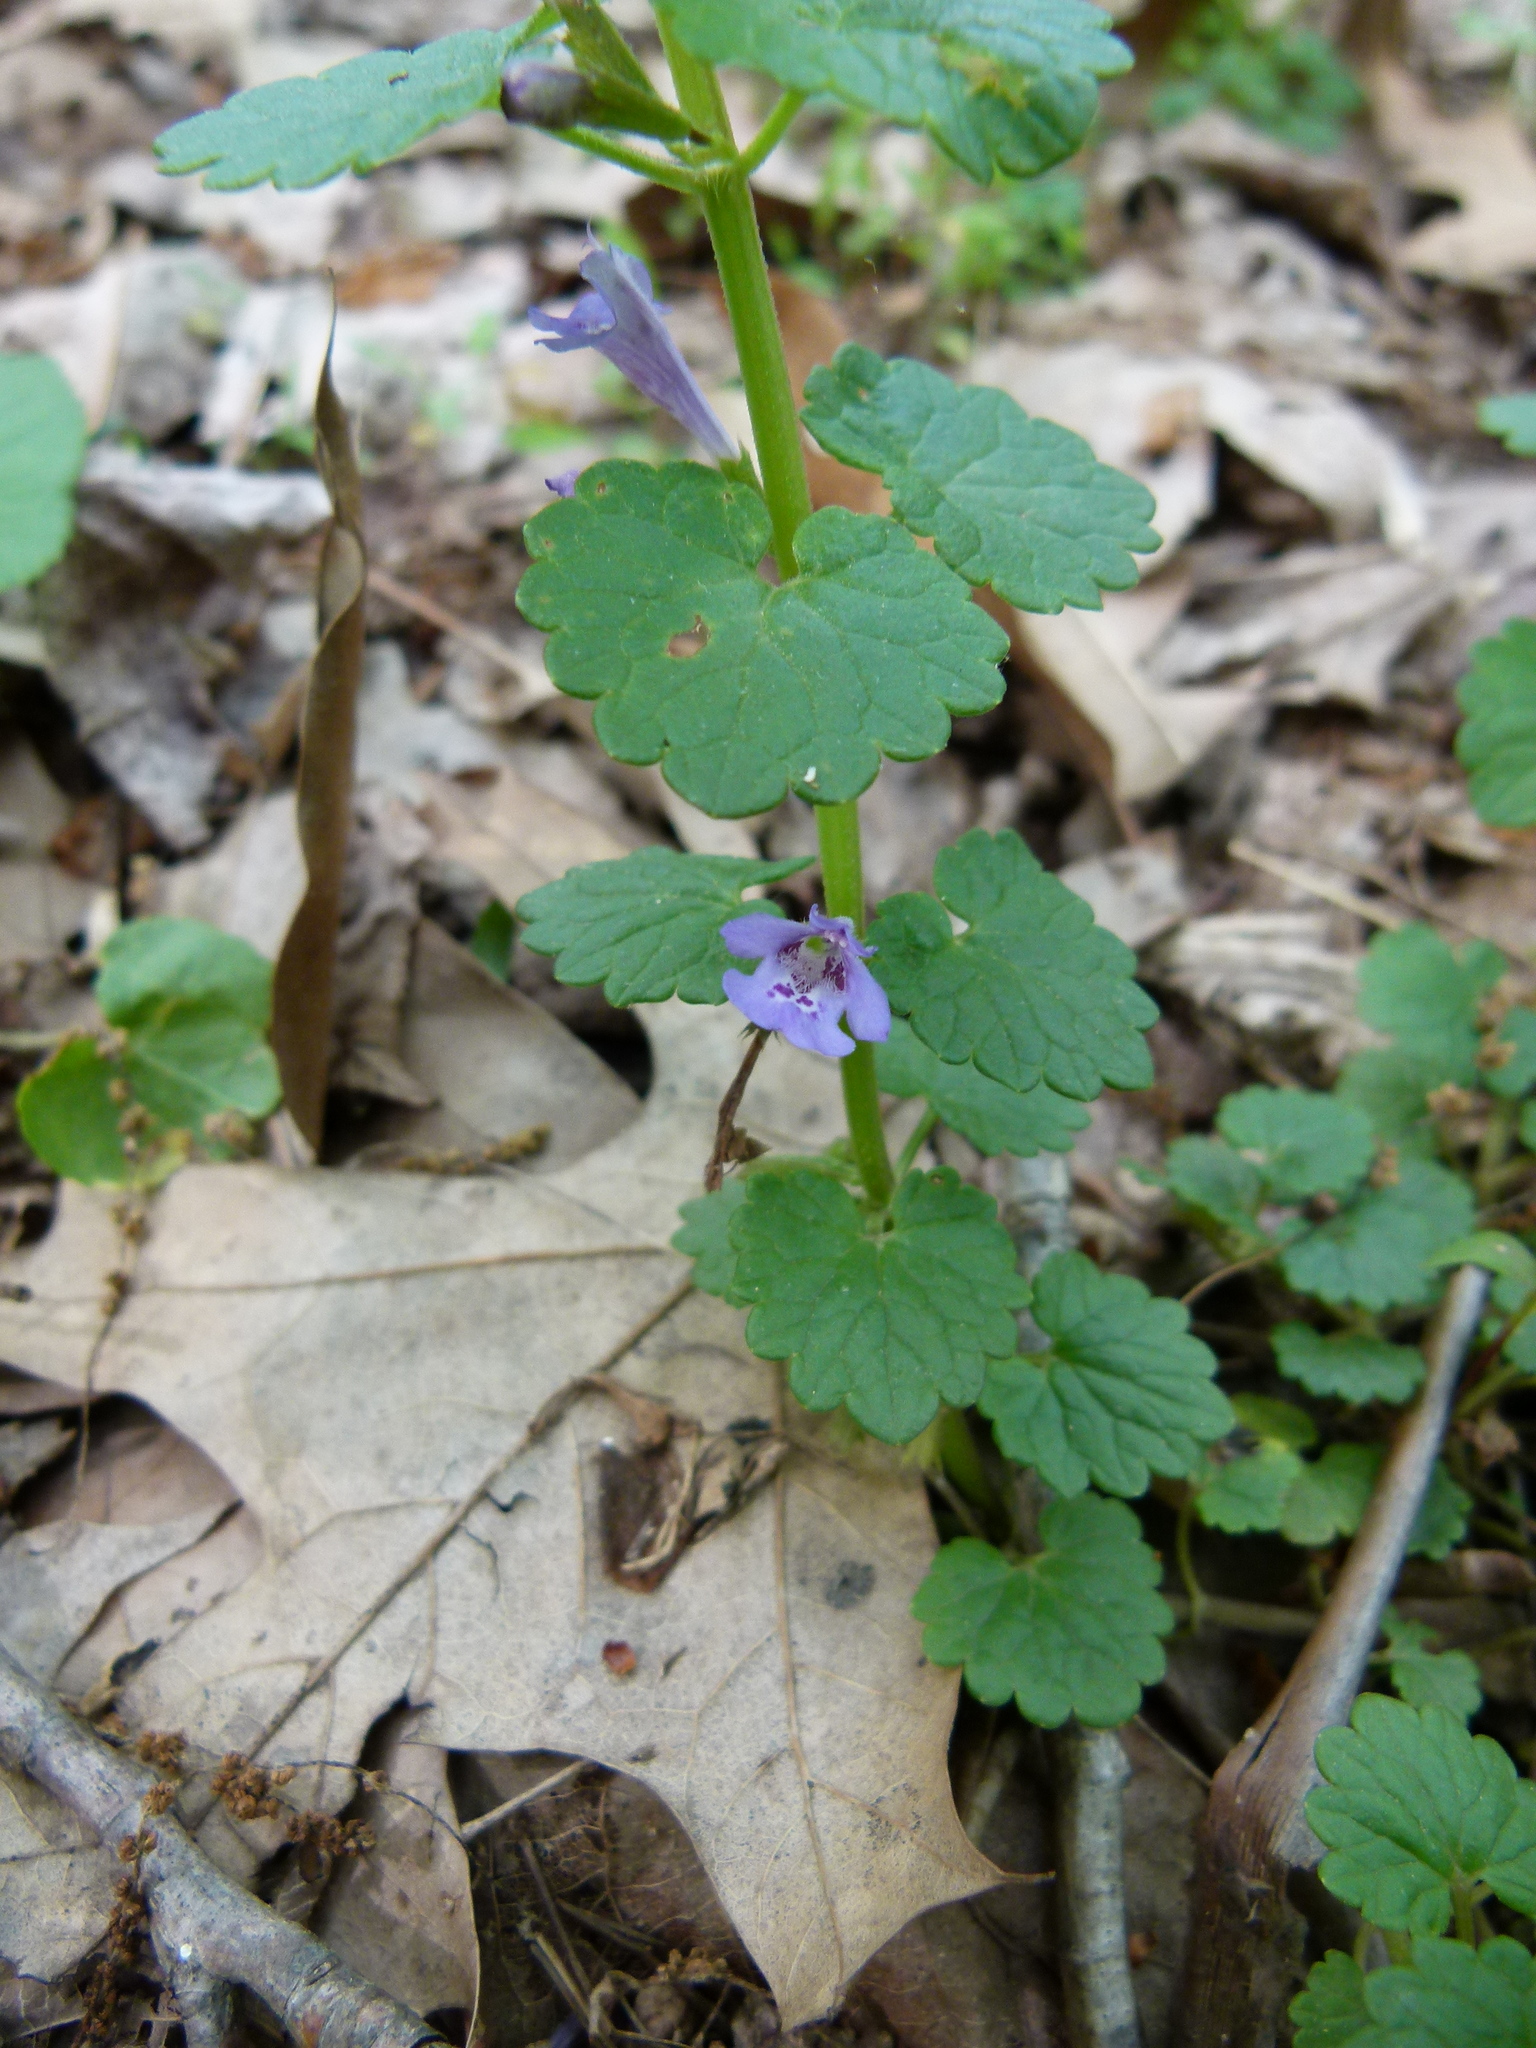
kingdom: Plantae
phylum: Tracheophyta
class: Magnoliopsida
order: Lamiales
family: Lamiaceae
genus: Glechoma
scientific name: Glechoma hederacea
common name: Ground ivy
